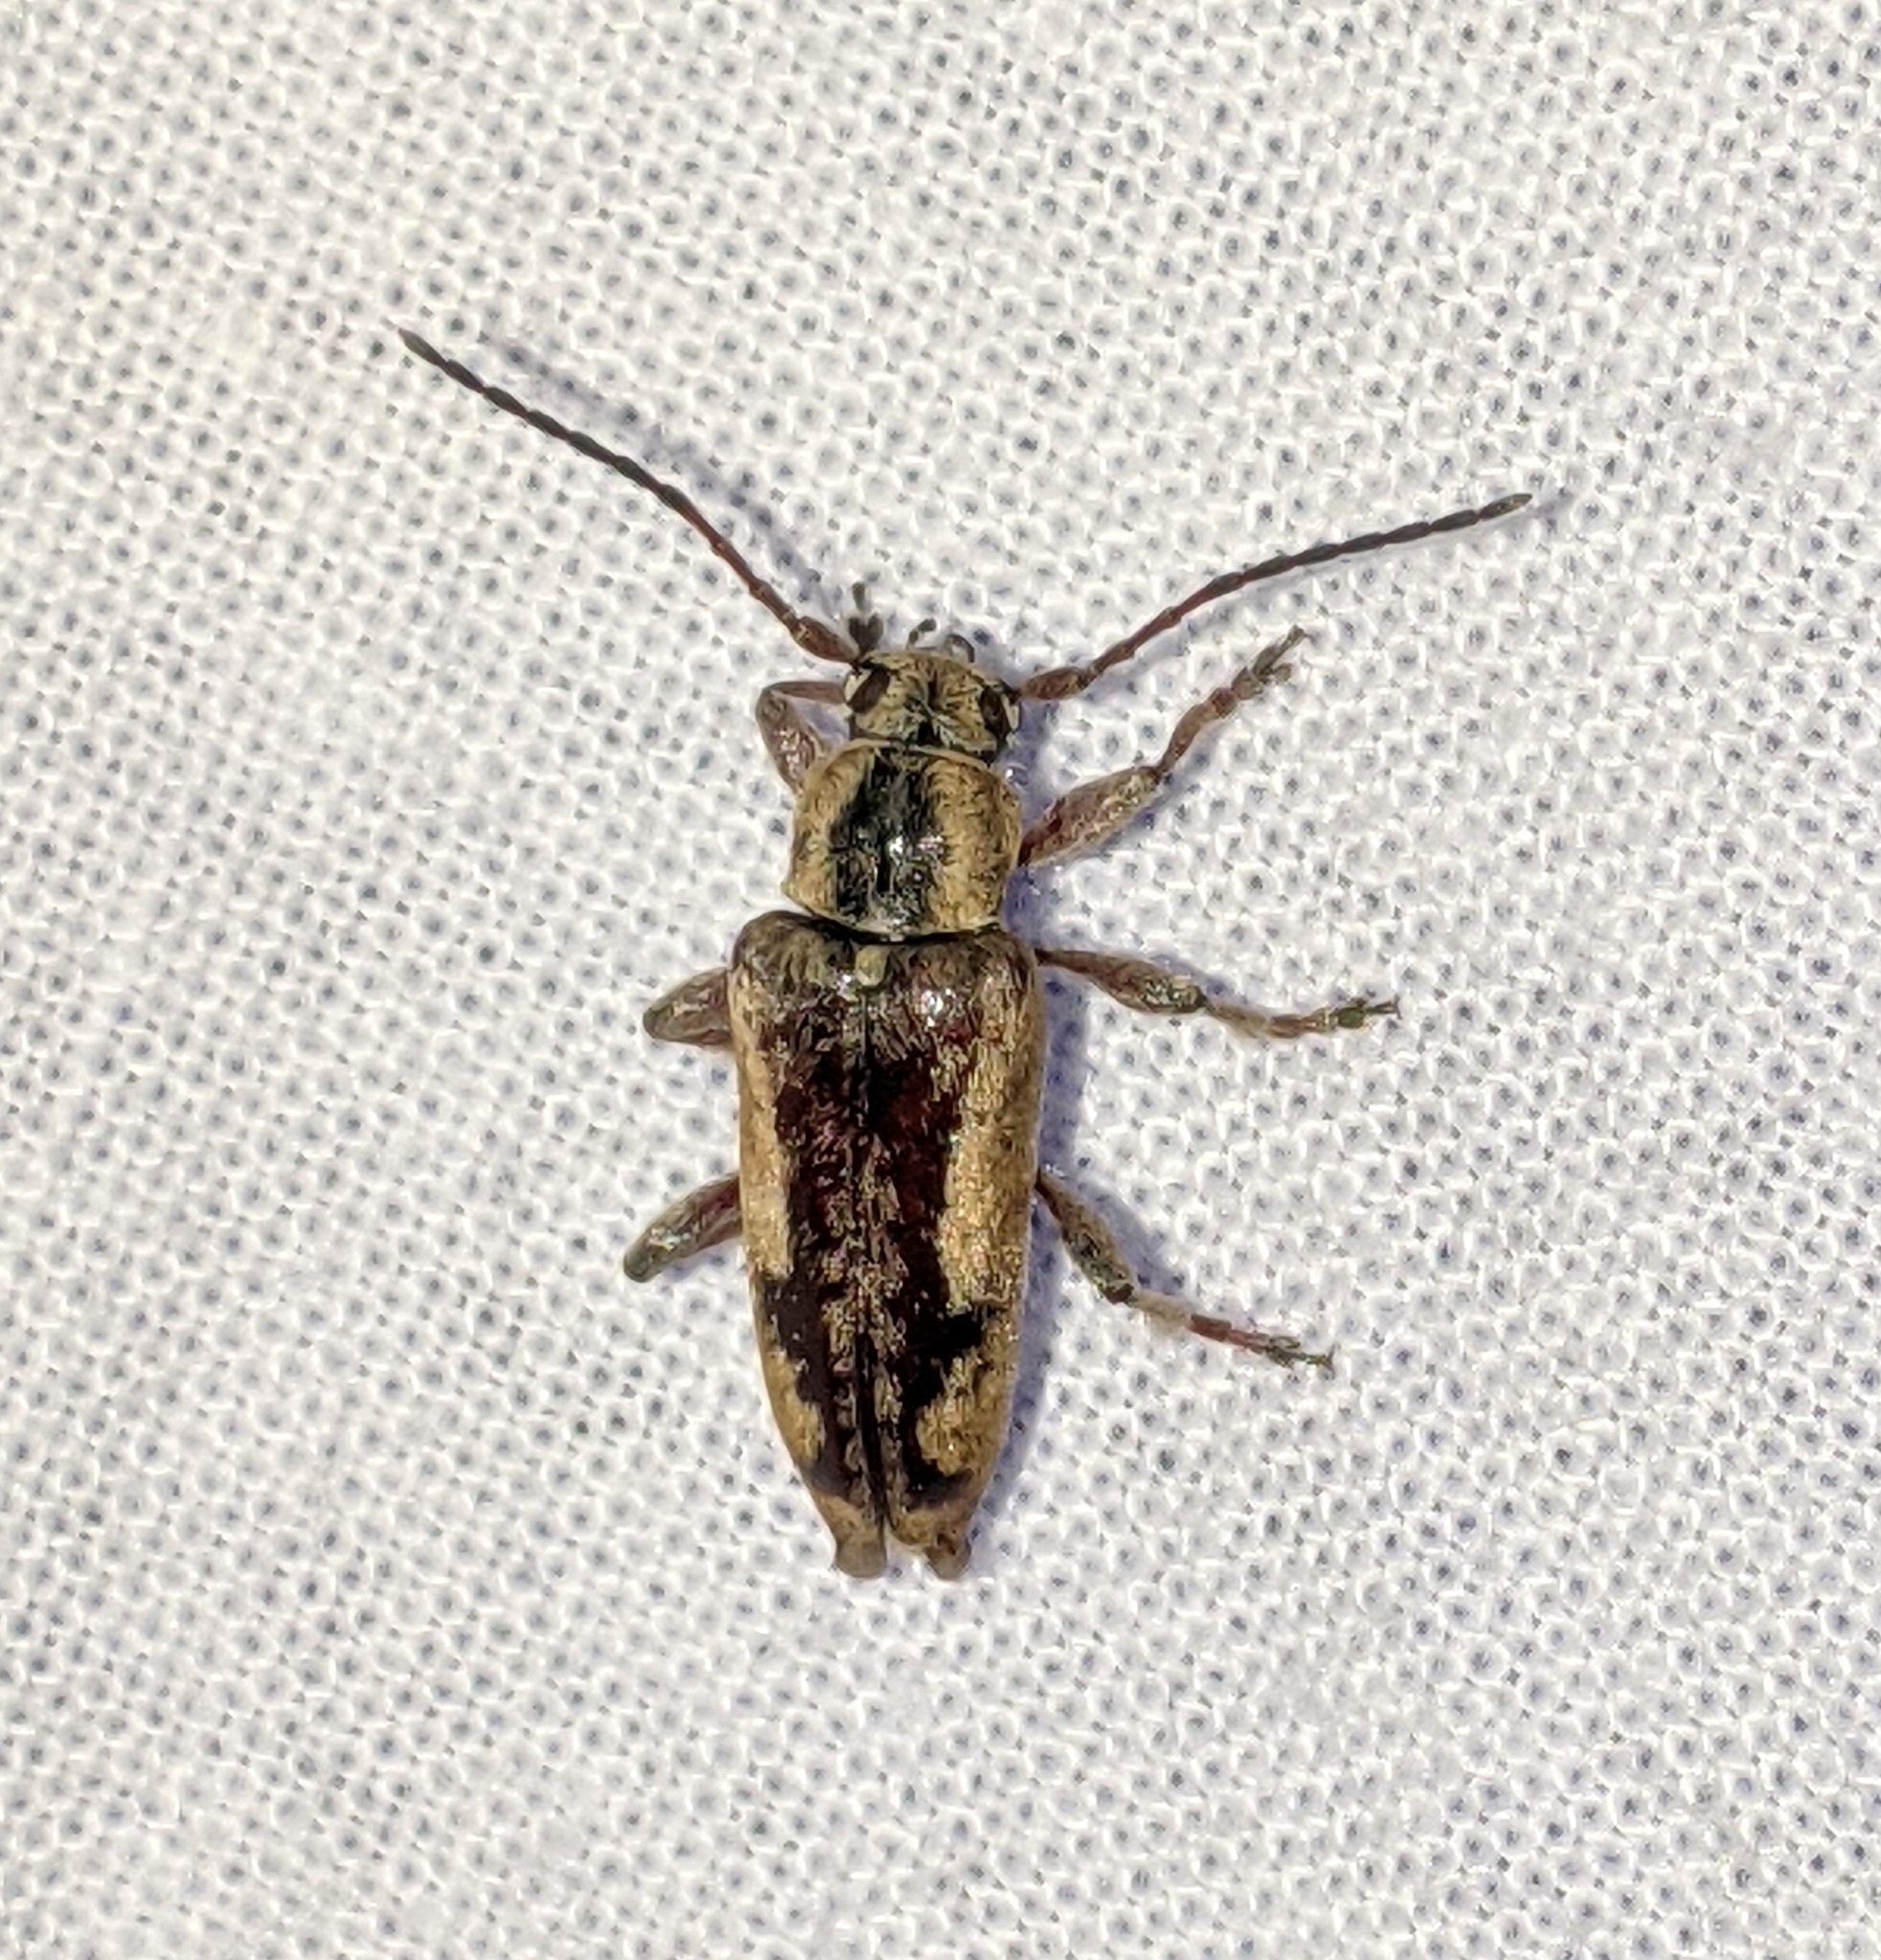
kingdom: Animalia
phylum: Arthropoda
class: Insecta
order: Coleoptera
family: Cerambycidae
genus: Atimia
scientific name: Atimia confusa
